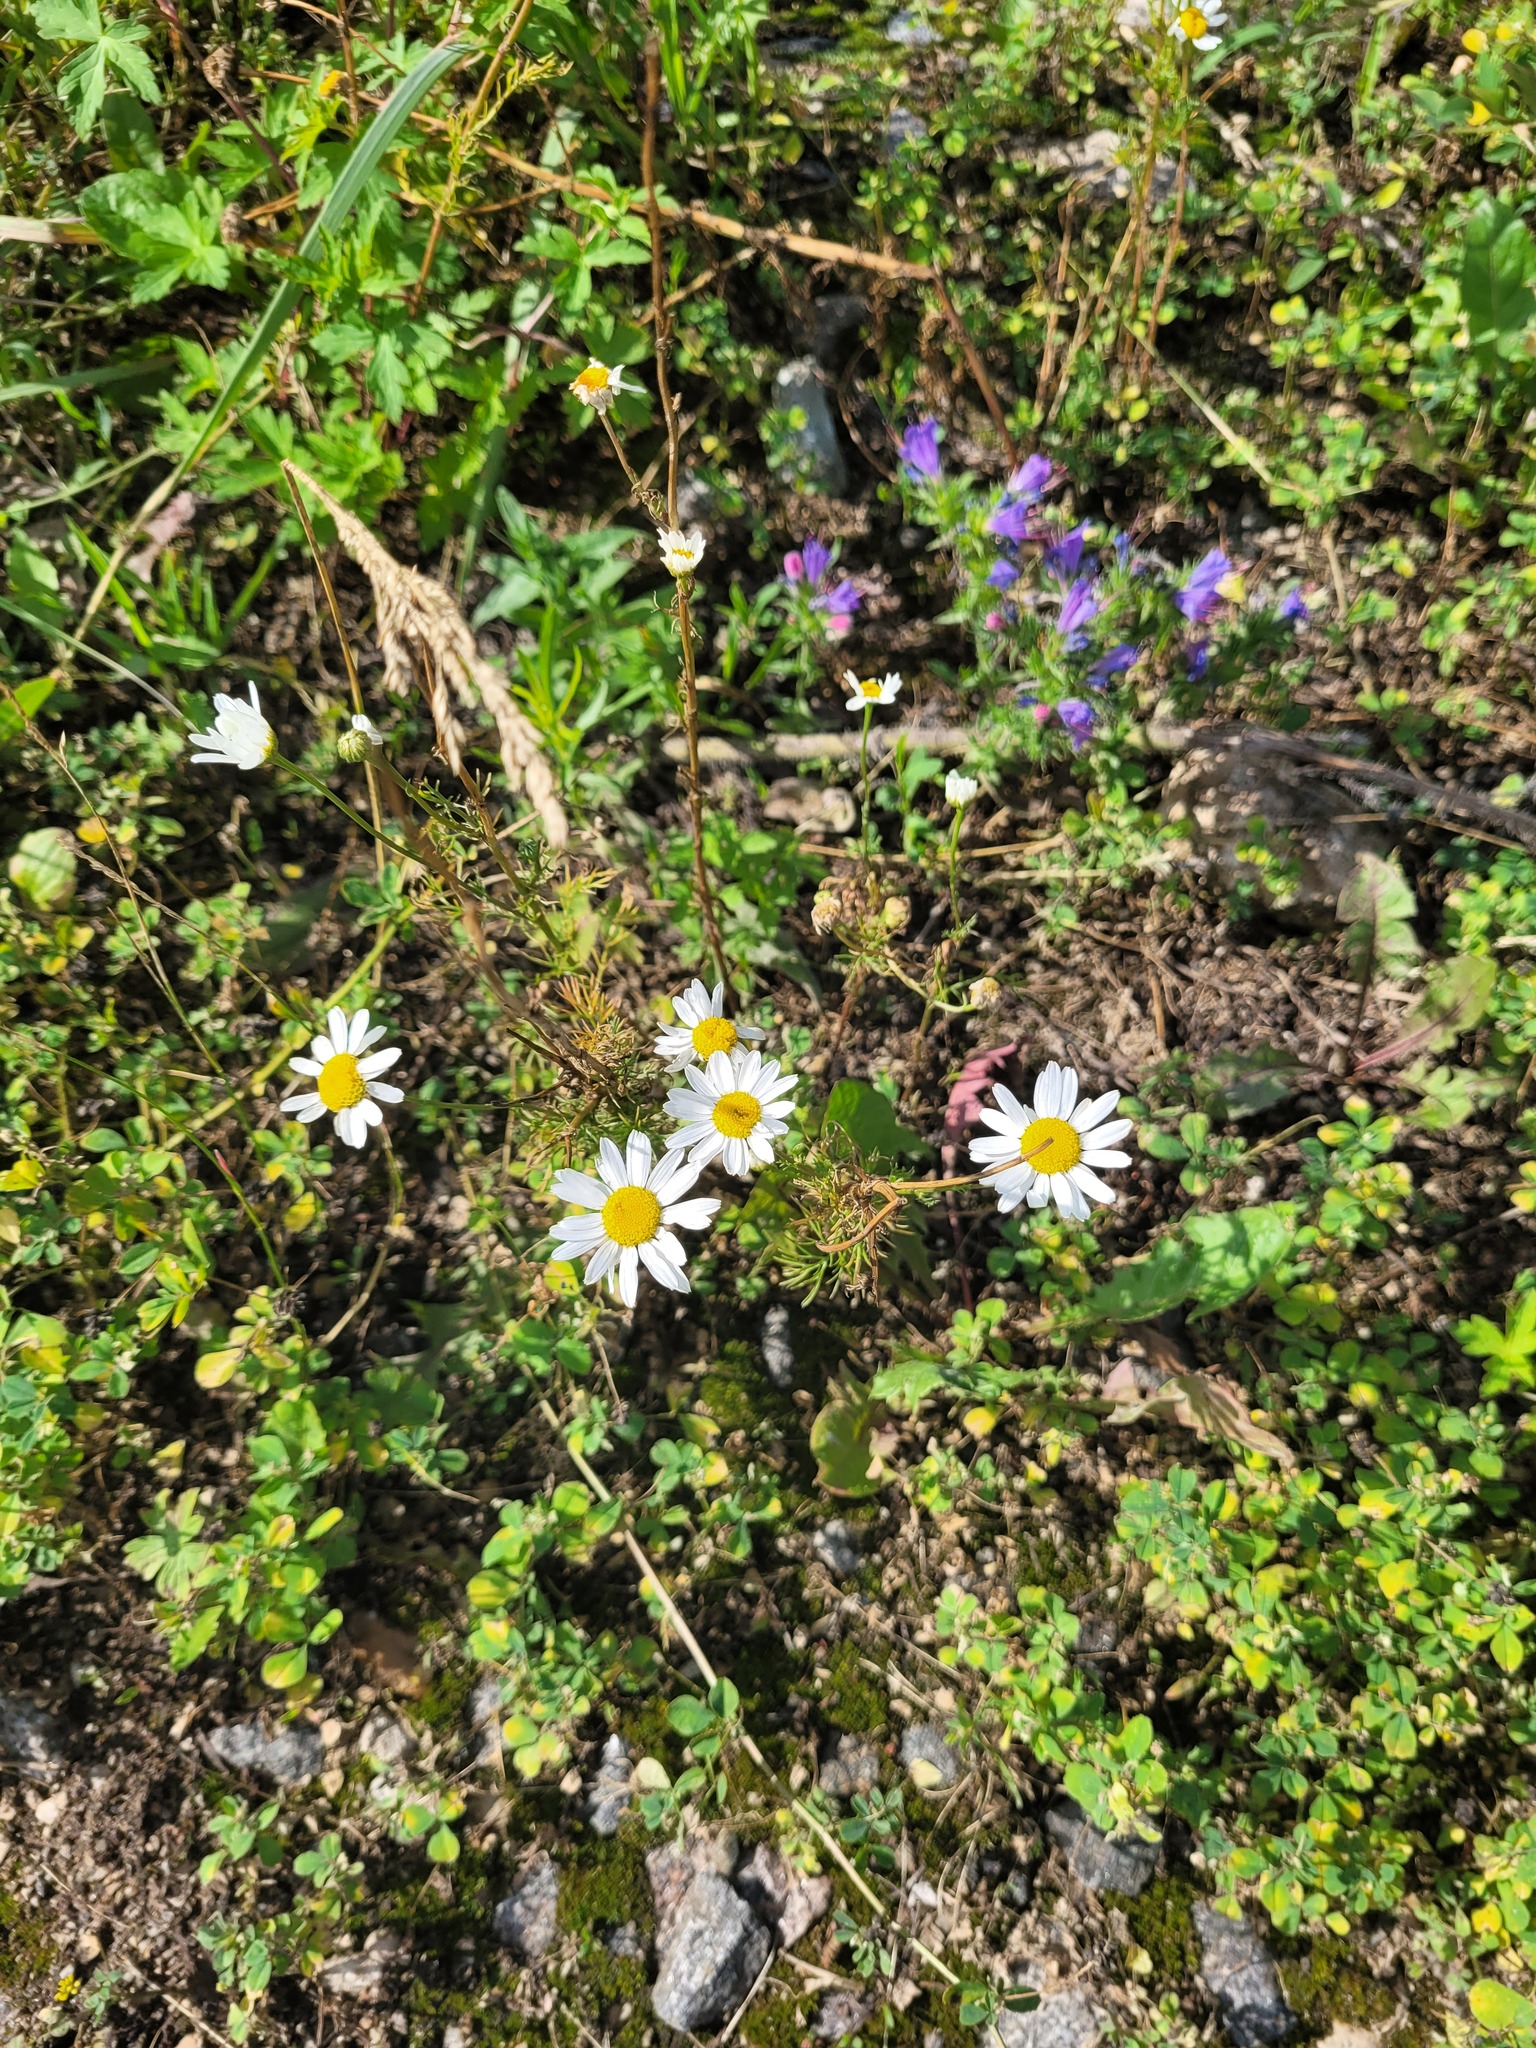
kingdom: Plantae
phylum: Tracheophyta
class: Magnoliopsida
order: Asterales
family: Asteraceae
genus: Tripleurospermum
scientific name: Tripleurospermum inodorum
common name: Scentless mayweed
